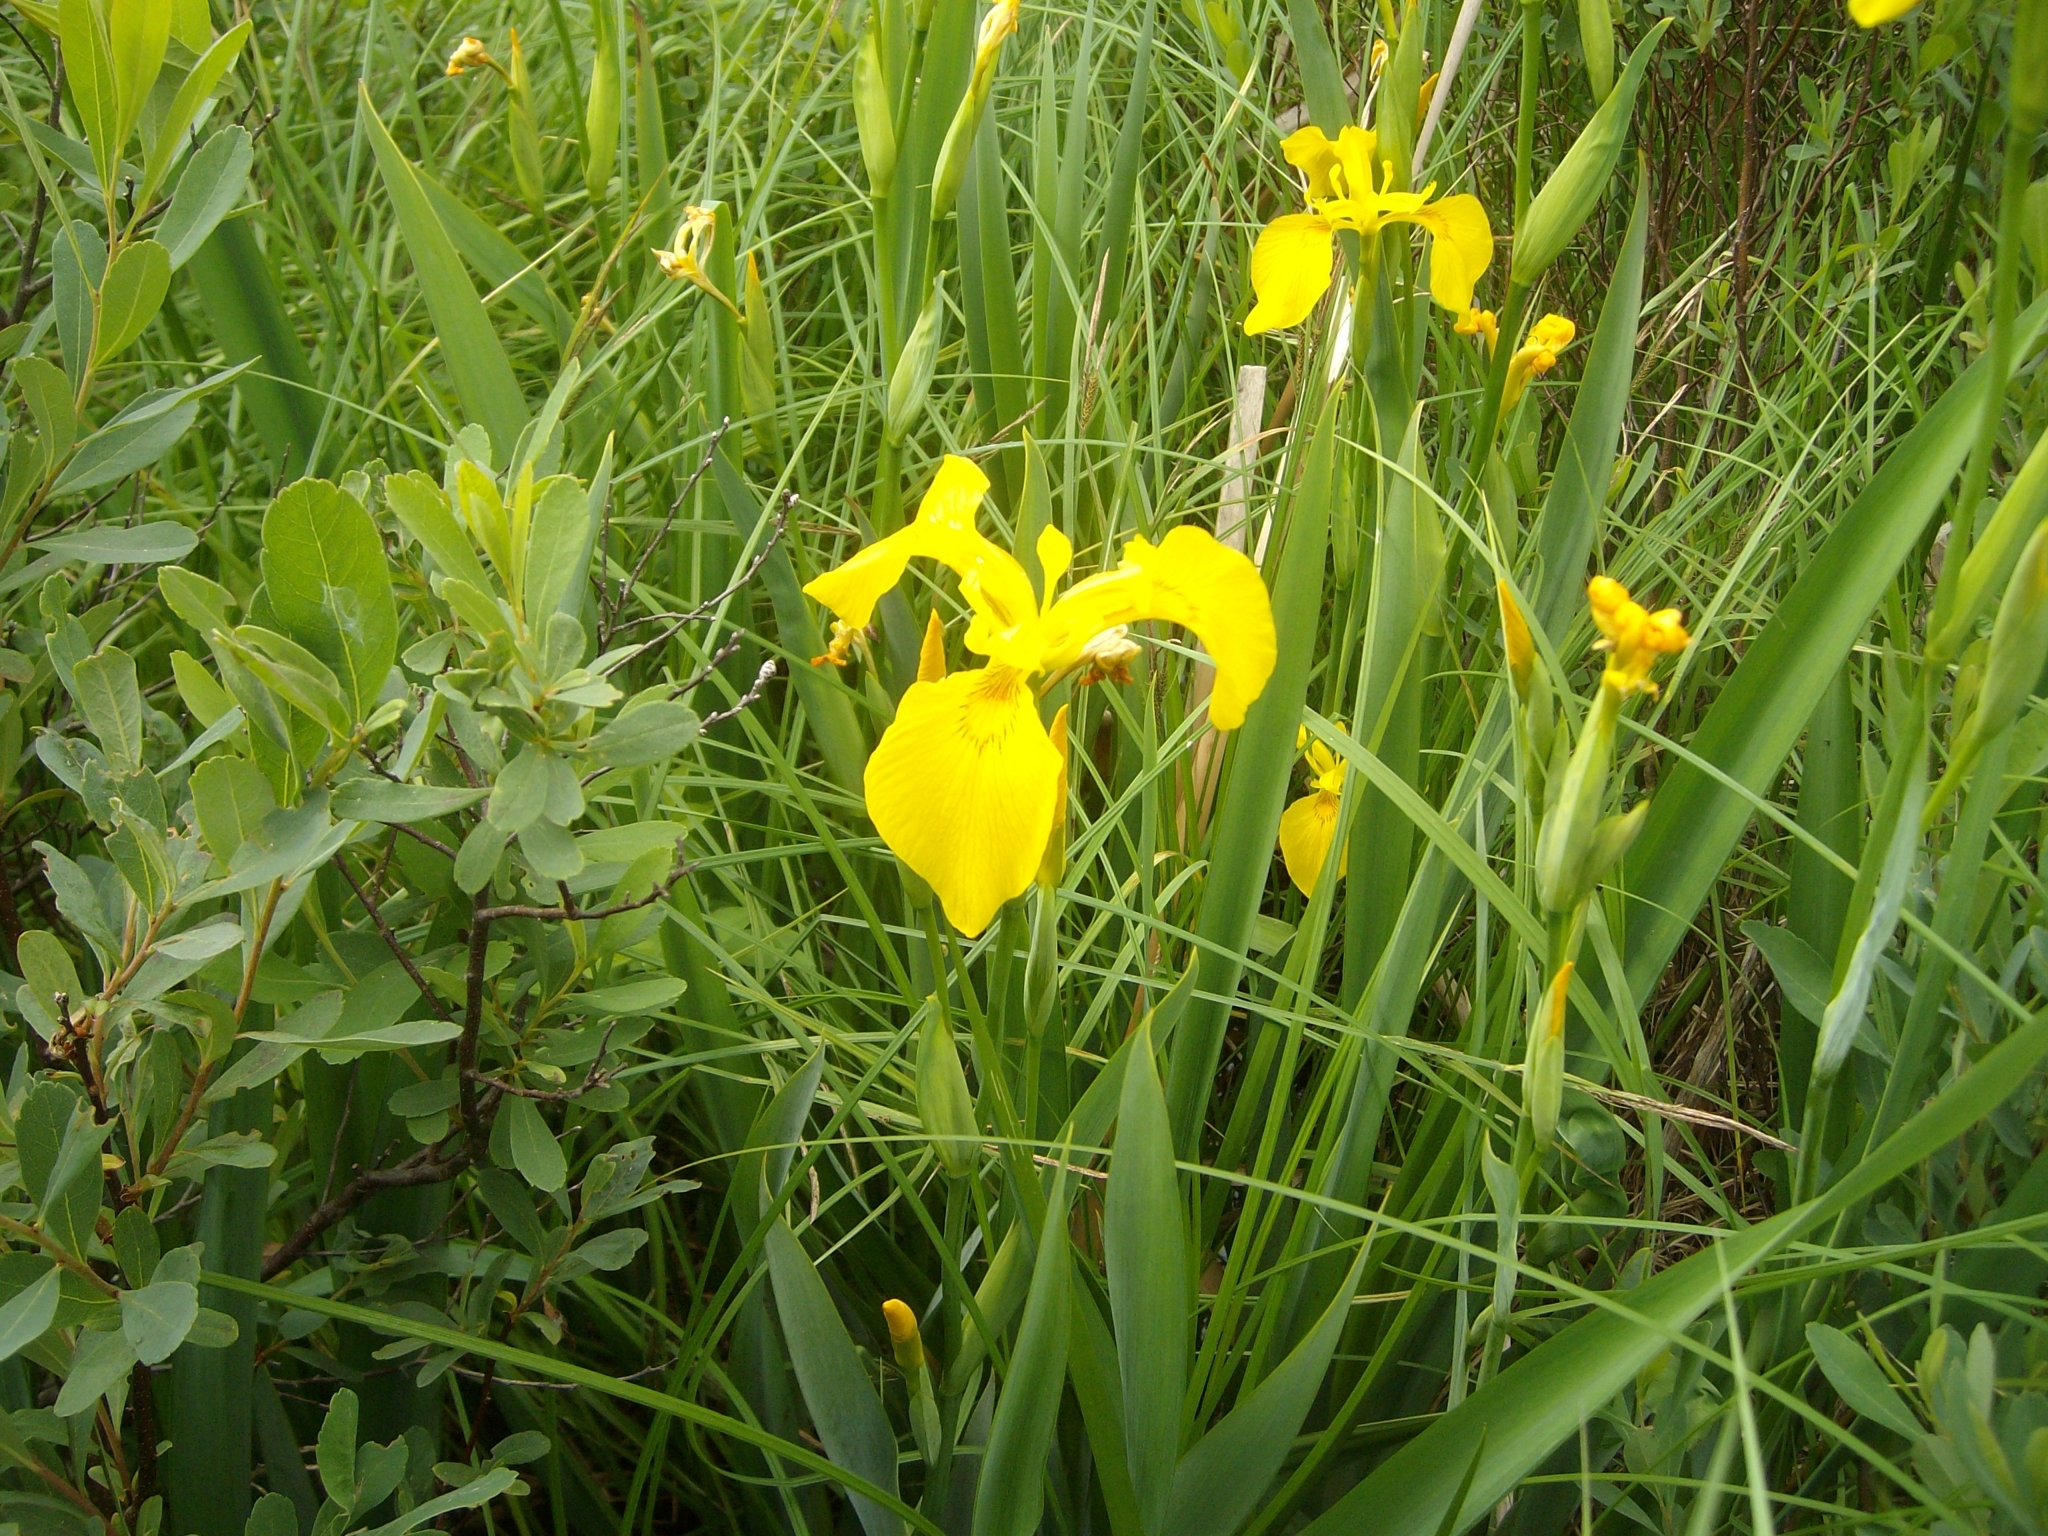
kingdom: Plantae
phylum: Tracheophyta
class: Liliopsida
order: Asparagales
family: Iridaceae
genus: Iris
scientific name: Iris pseudacorus
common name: Yellow flag
